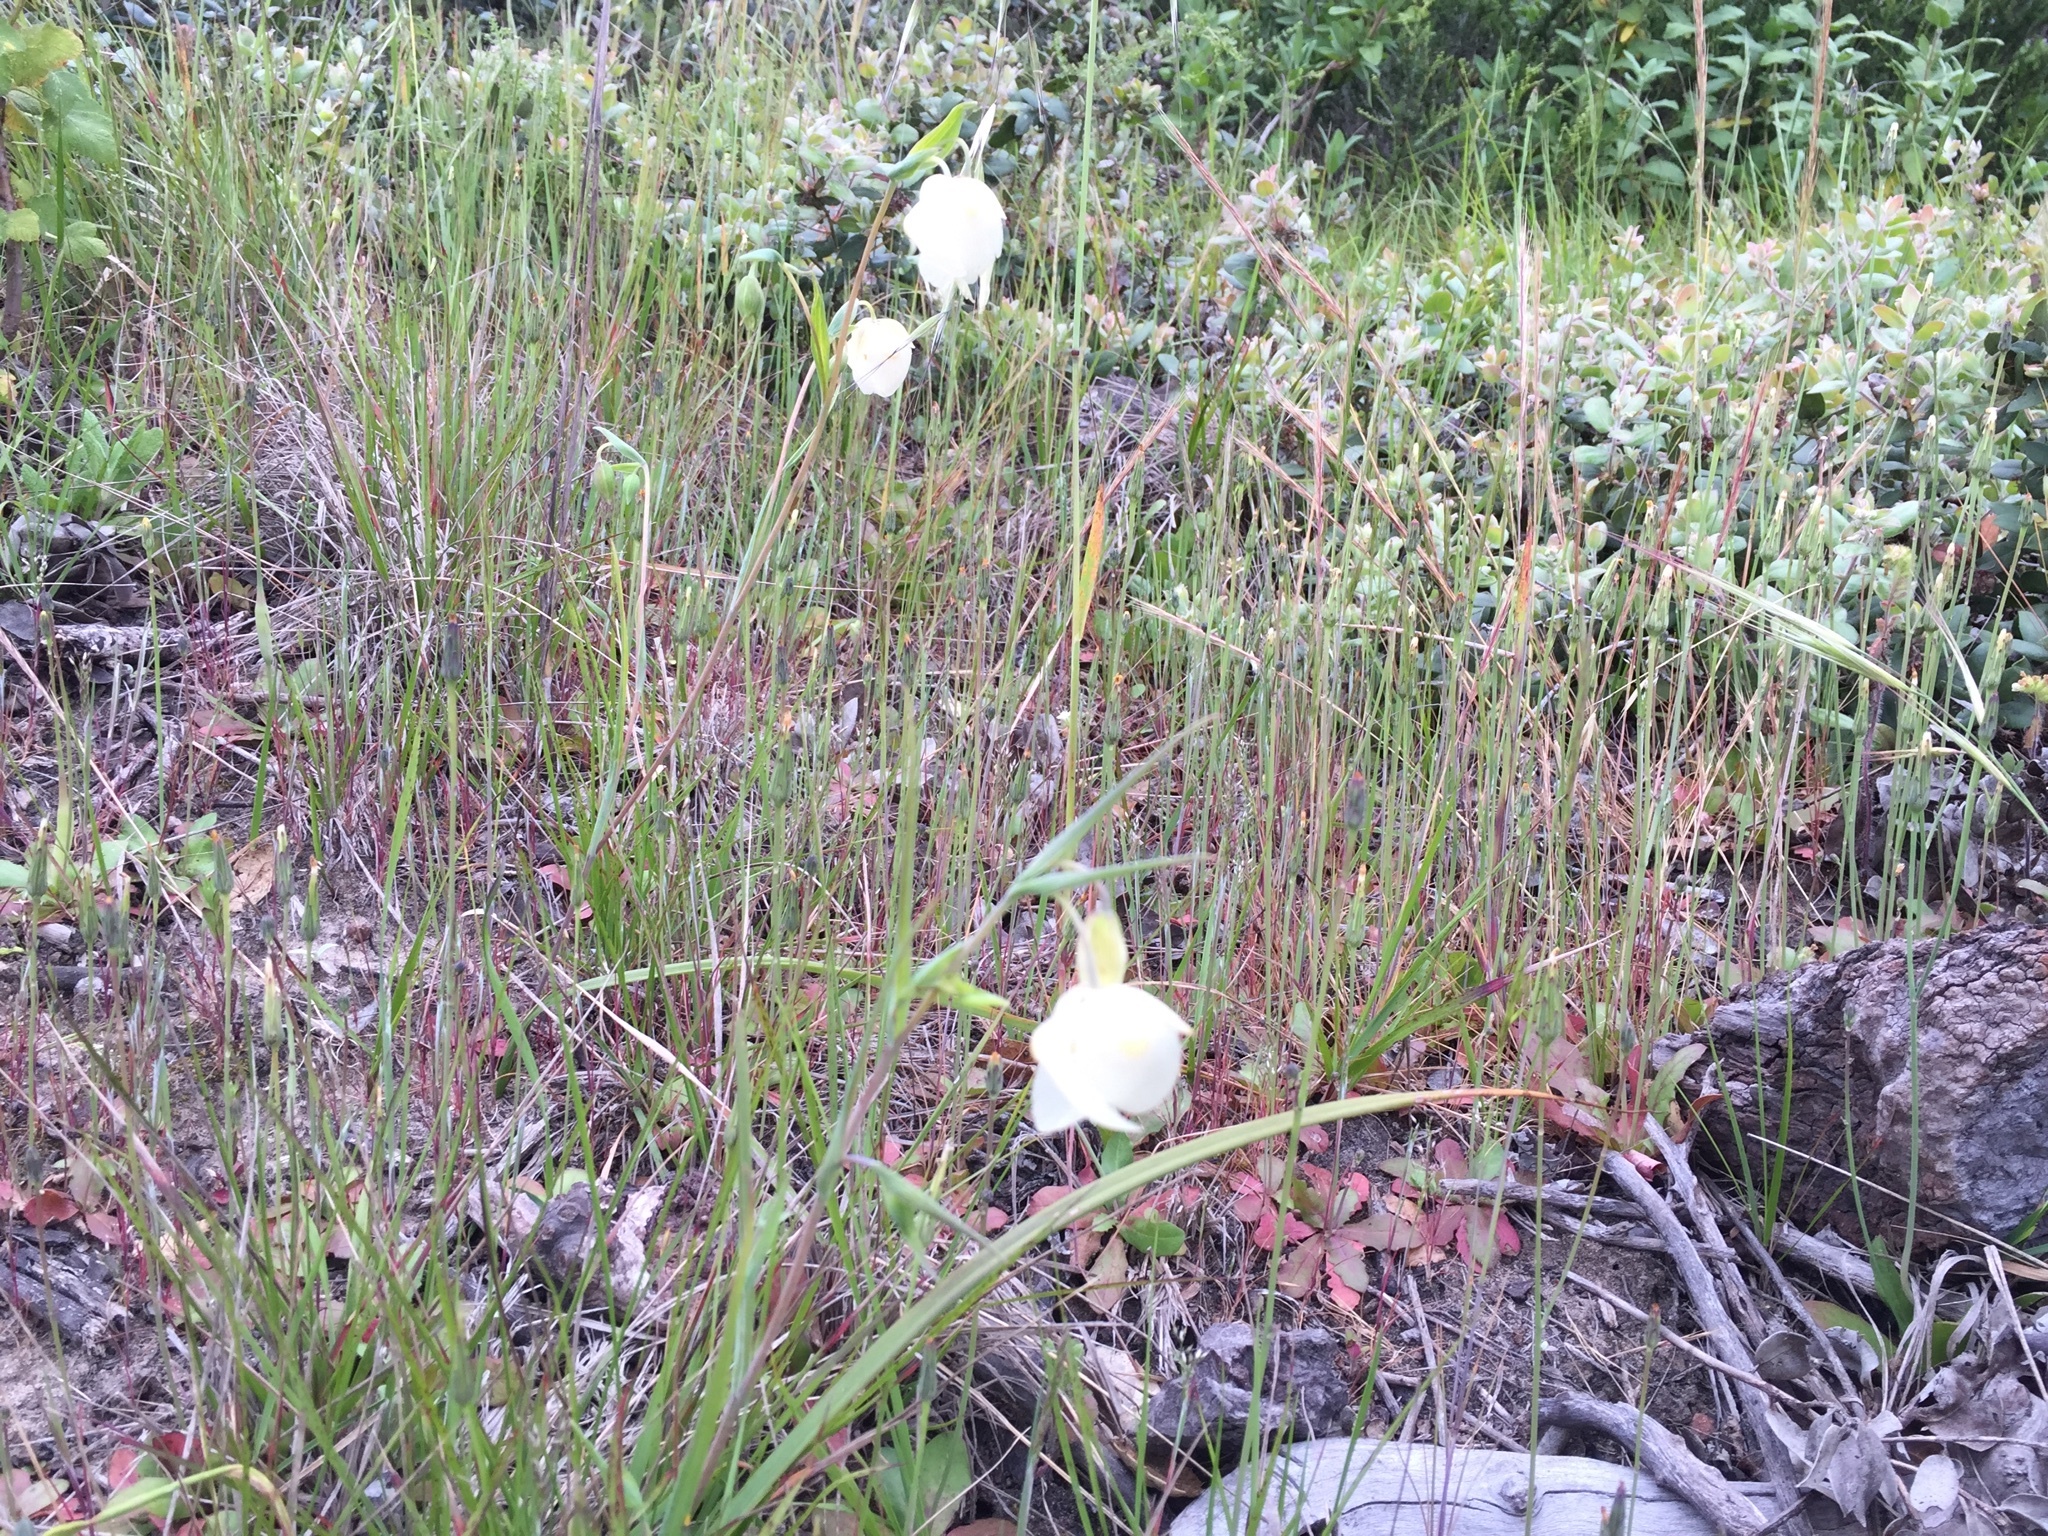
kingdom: Plantae
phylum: Tracheophyta
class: Liliopsida
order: Liliales
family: Liliaceae
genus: Calochortus
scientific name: Calochortus albus
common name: Fairy-lantern
